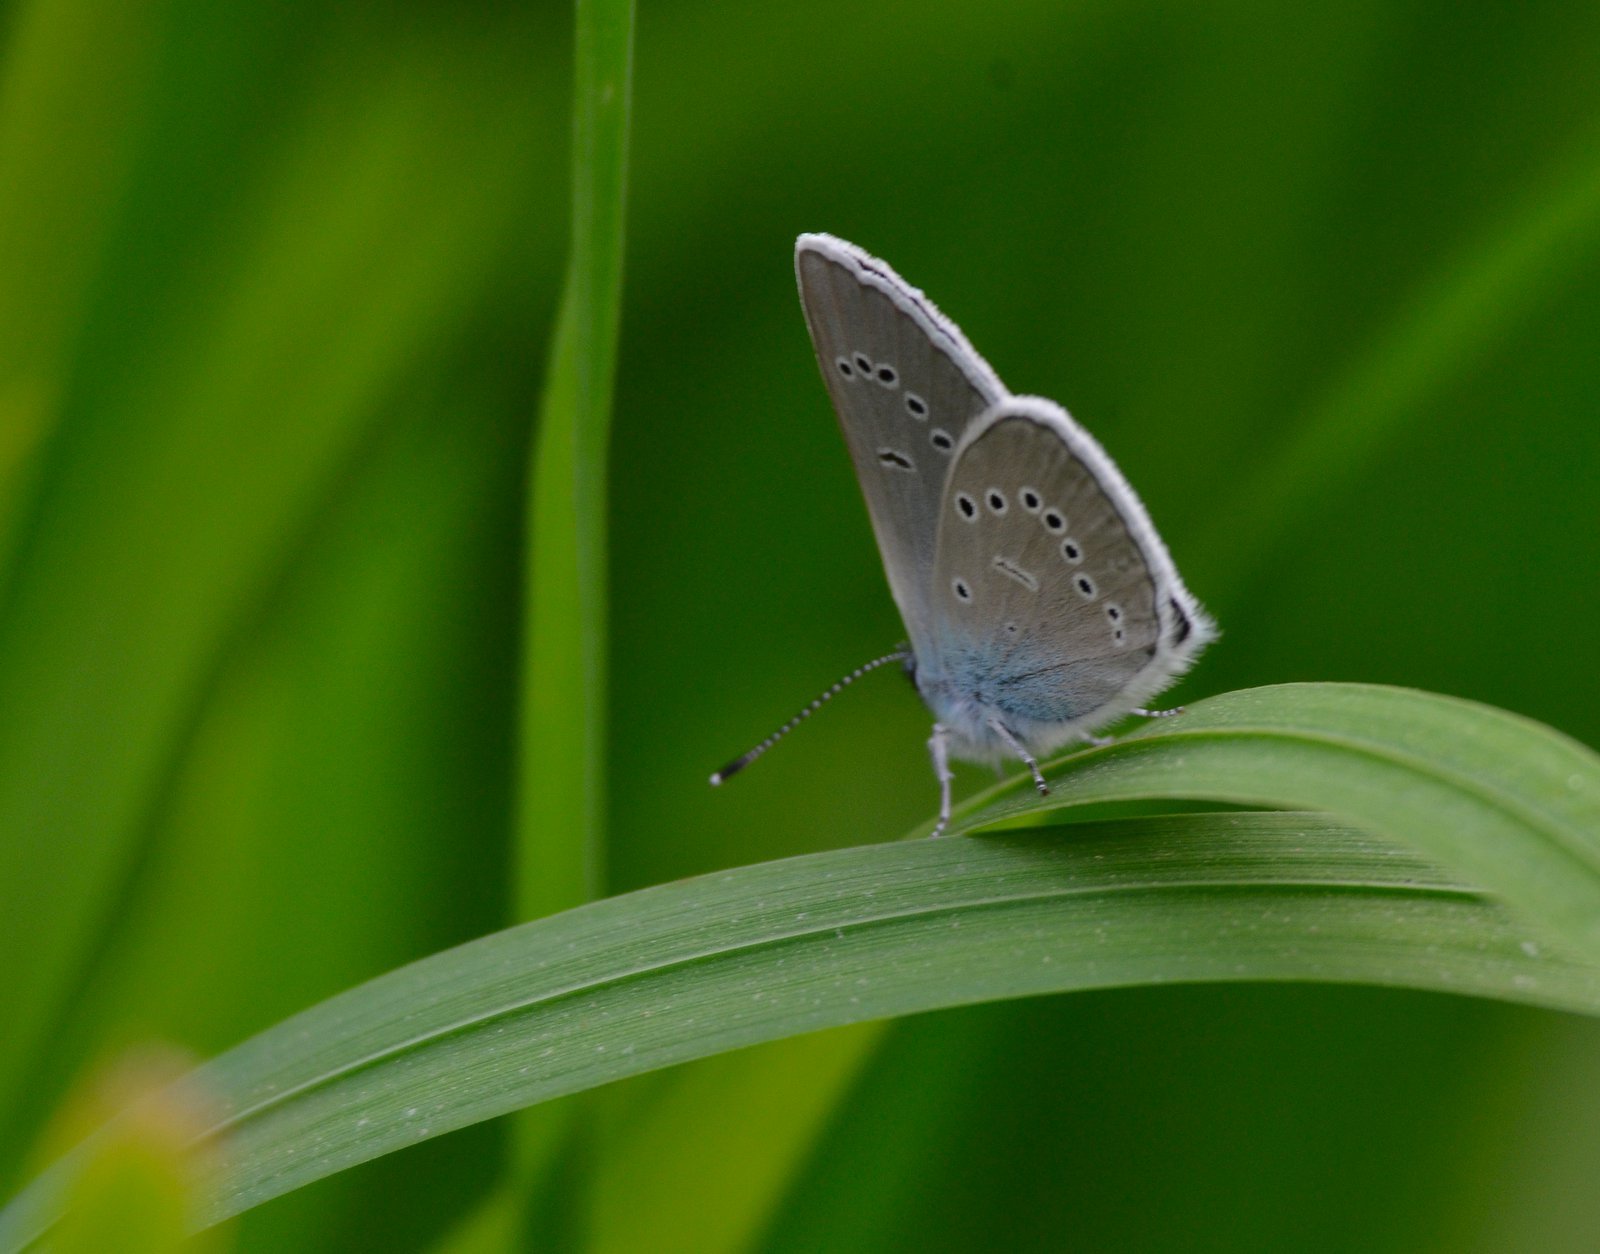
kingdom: Animalia
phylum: Arthropoda
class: Insecta
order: Lepidoptera
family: Lycaenidae
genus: Cyaniris
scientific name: Cyaniris semiargus
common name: Mazarine blue
